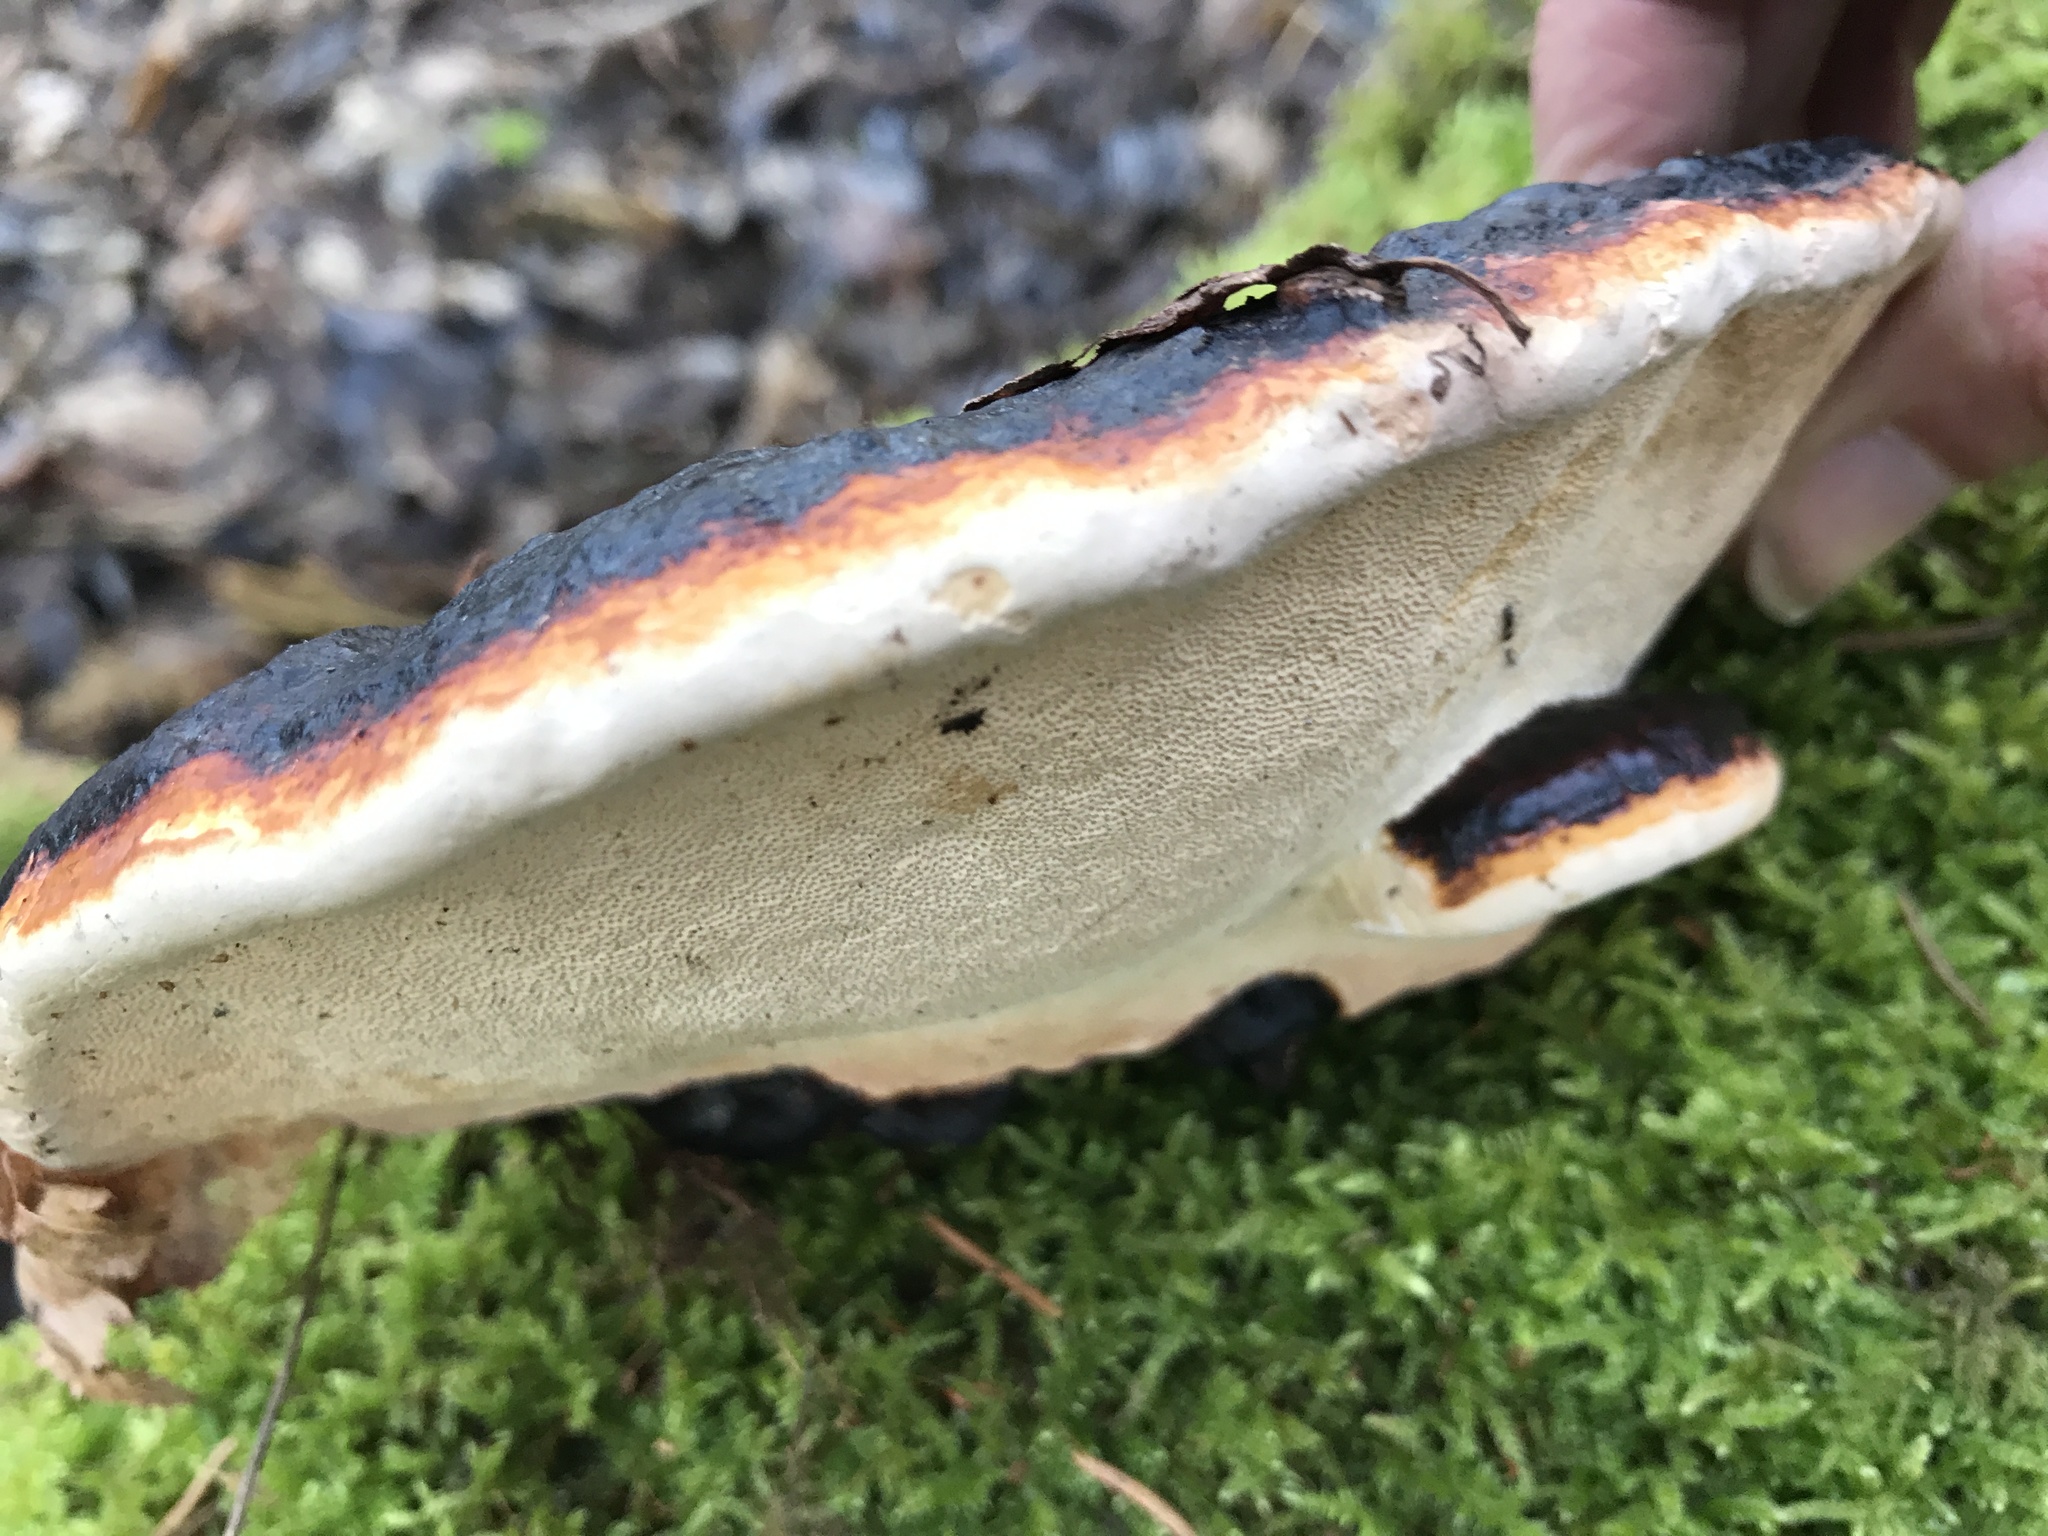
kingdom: Fungi
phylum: Basidiomycota
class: Agaricomycetes
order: Polyporales
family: Fomitopsidaceae
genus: Fomitopsis
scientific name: Fomitopsis pinicola
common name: Red-belted bracket
